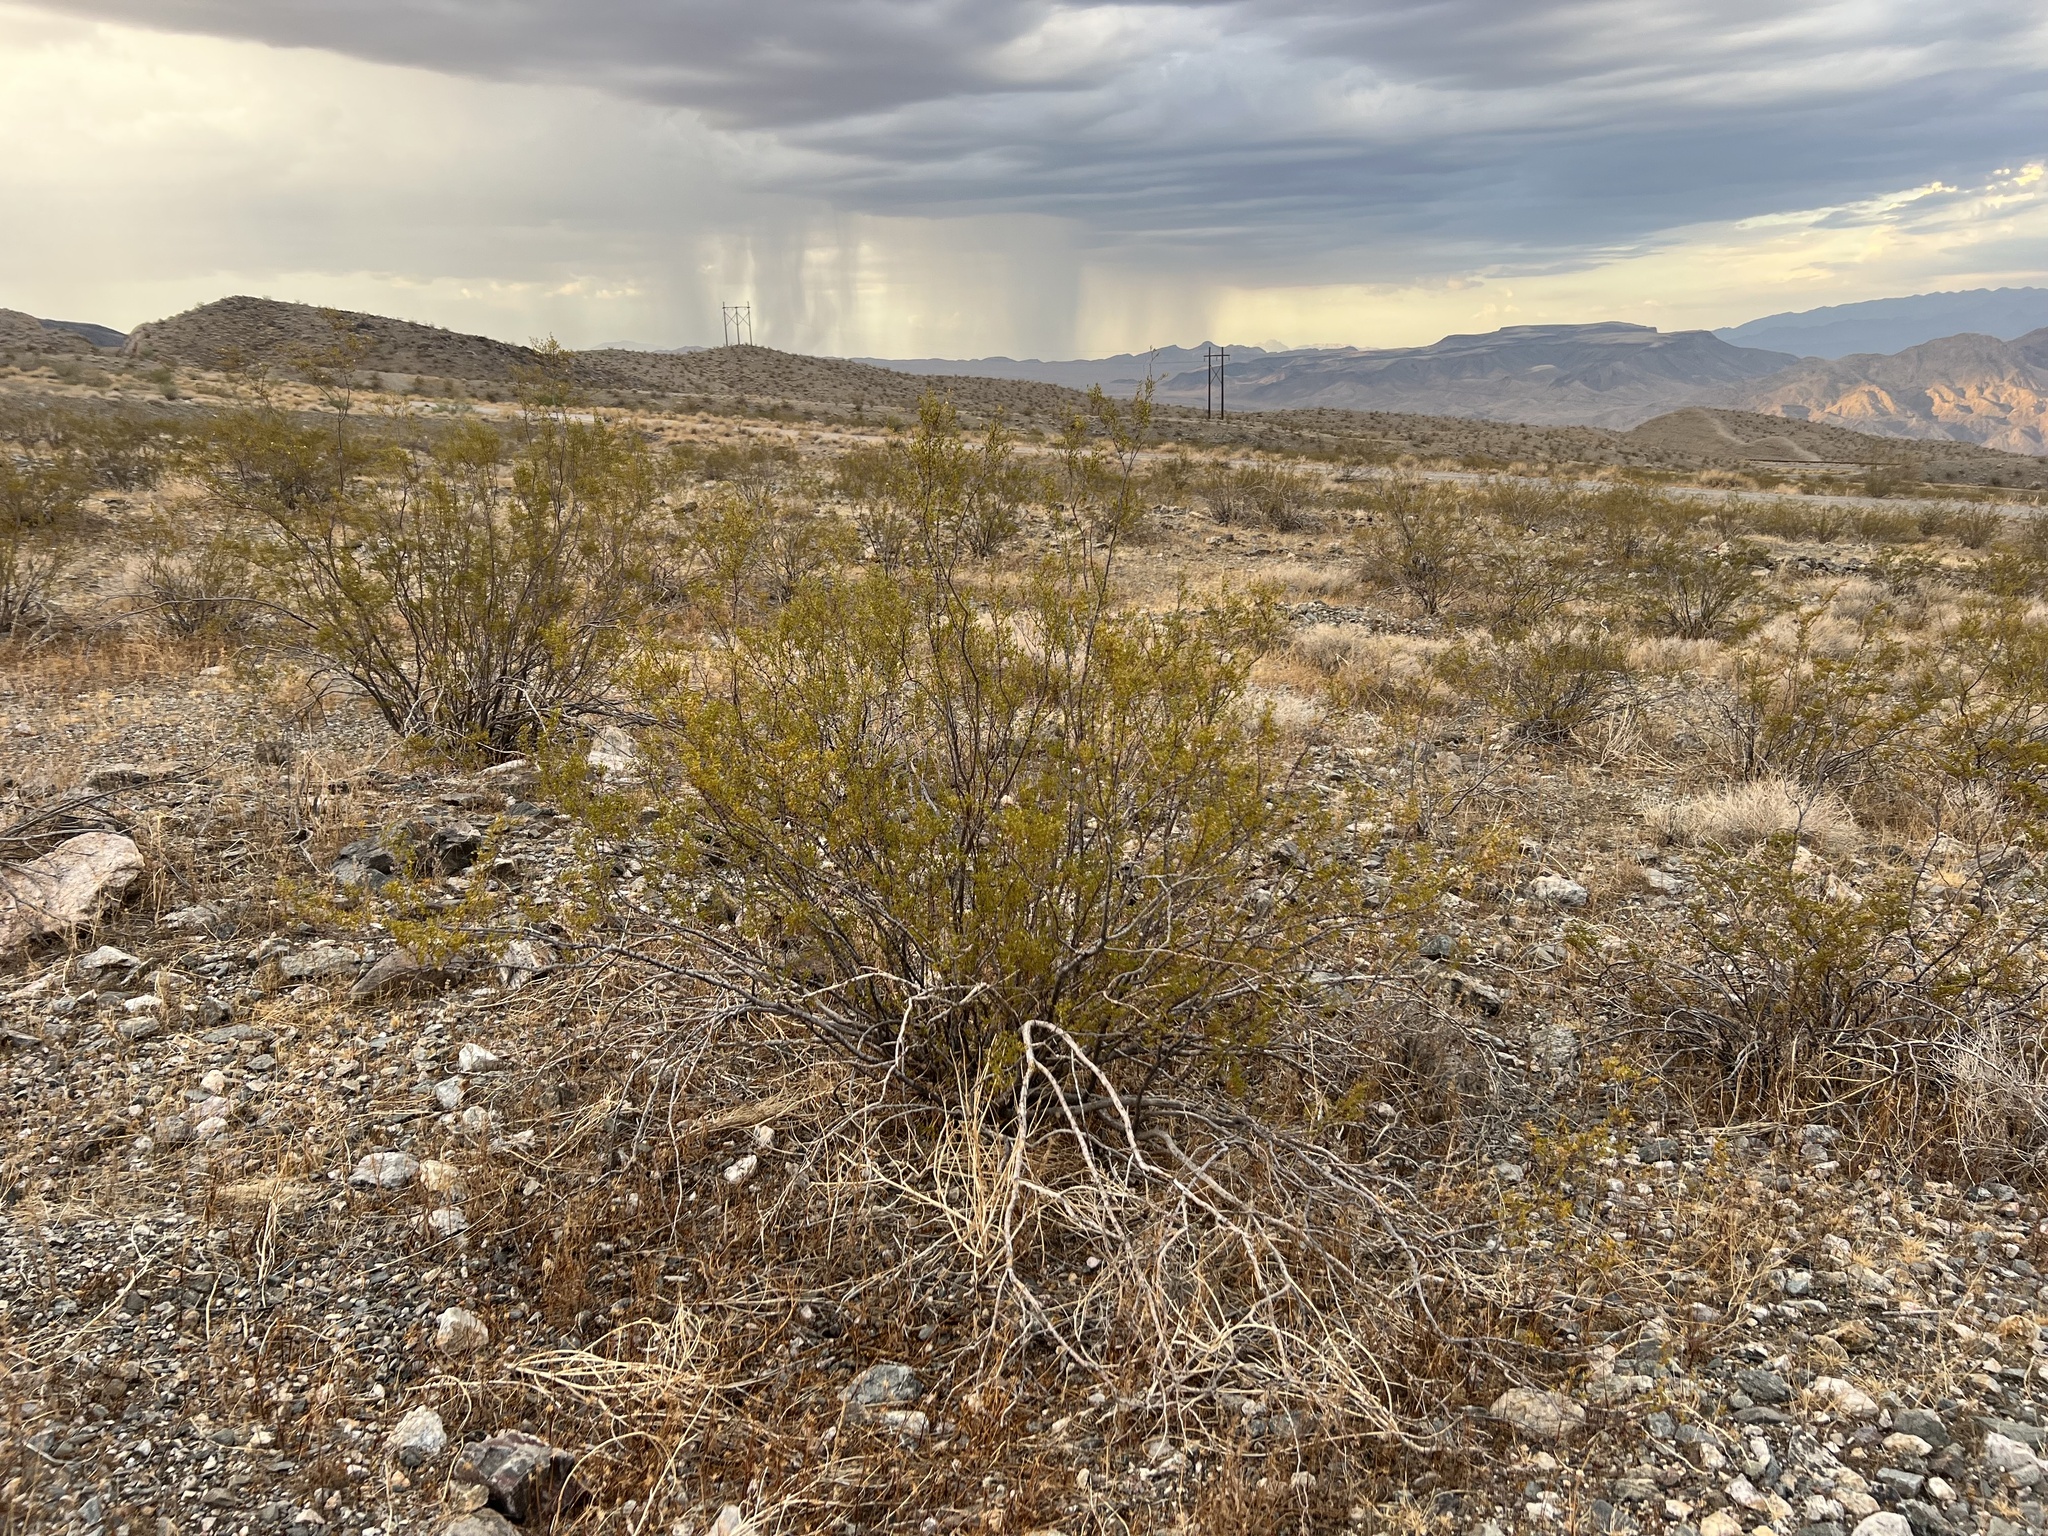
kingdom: Plantae
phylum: Tracheophyta
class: Magnoliopsida
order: Zygophyllales
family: Zygophyllaceae
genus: Larrea
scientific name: Larrea tridentata
